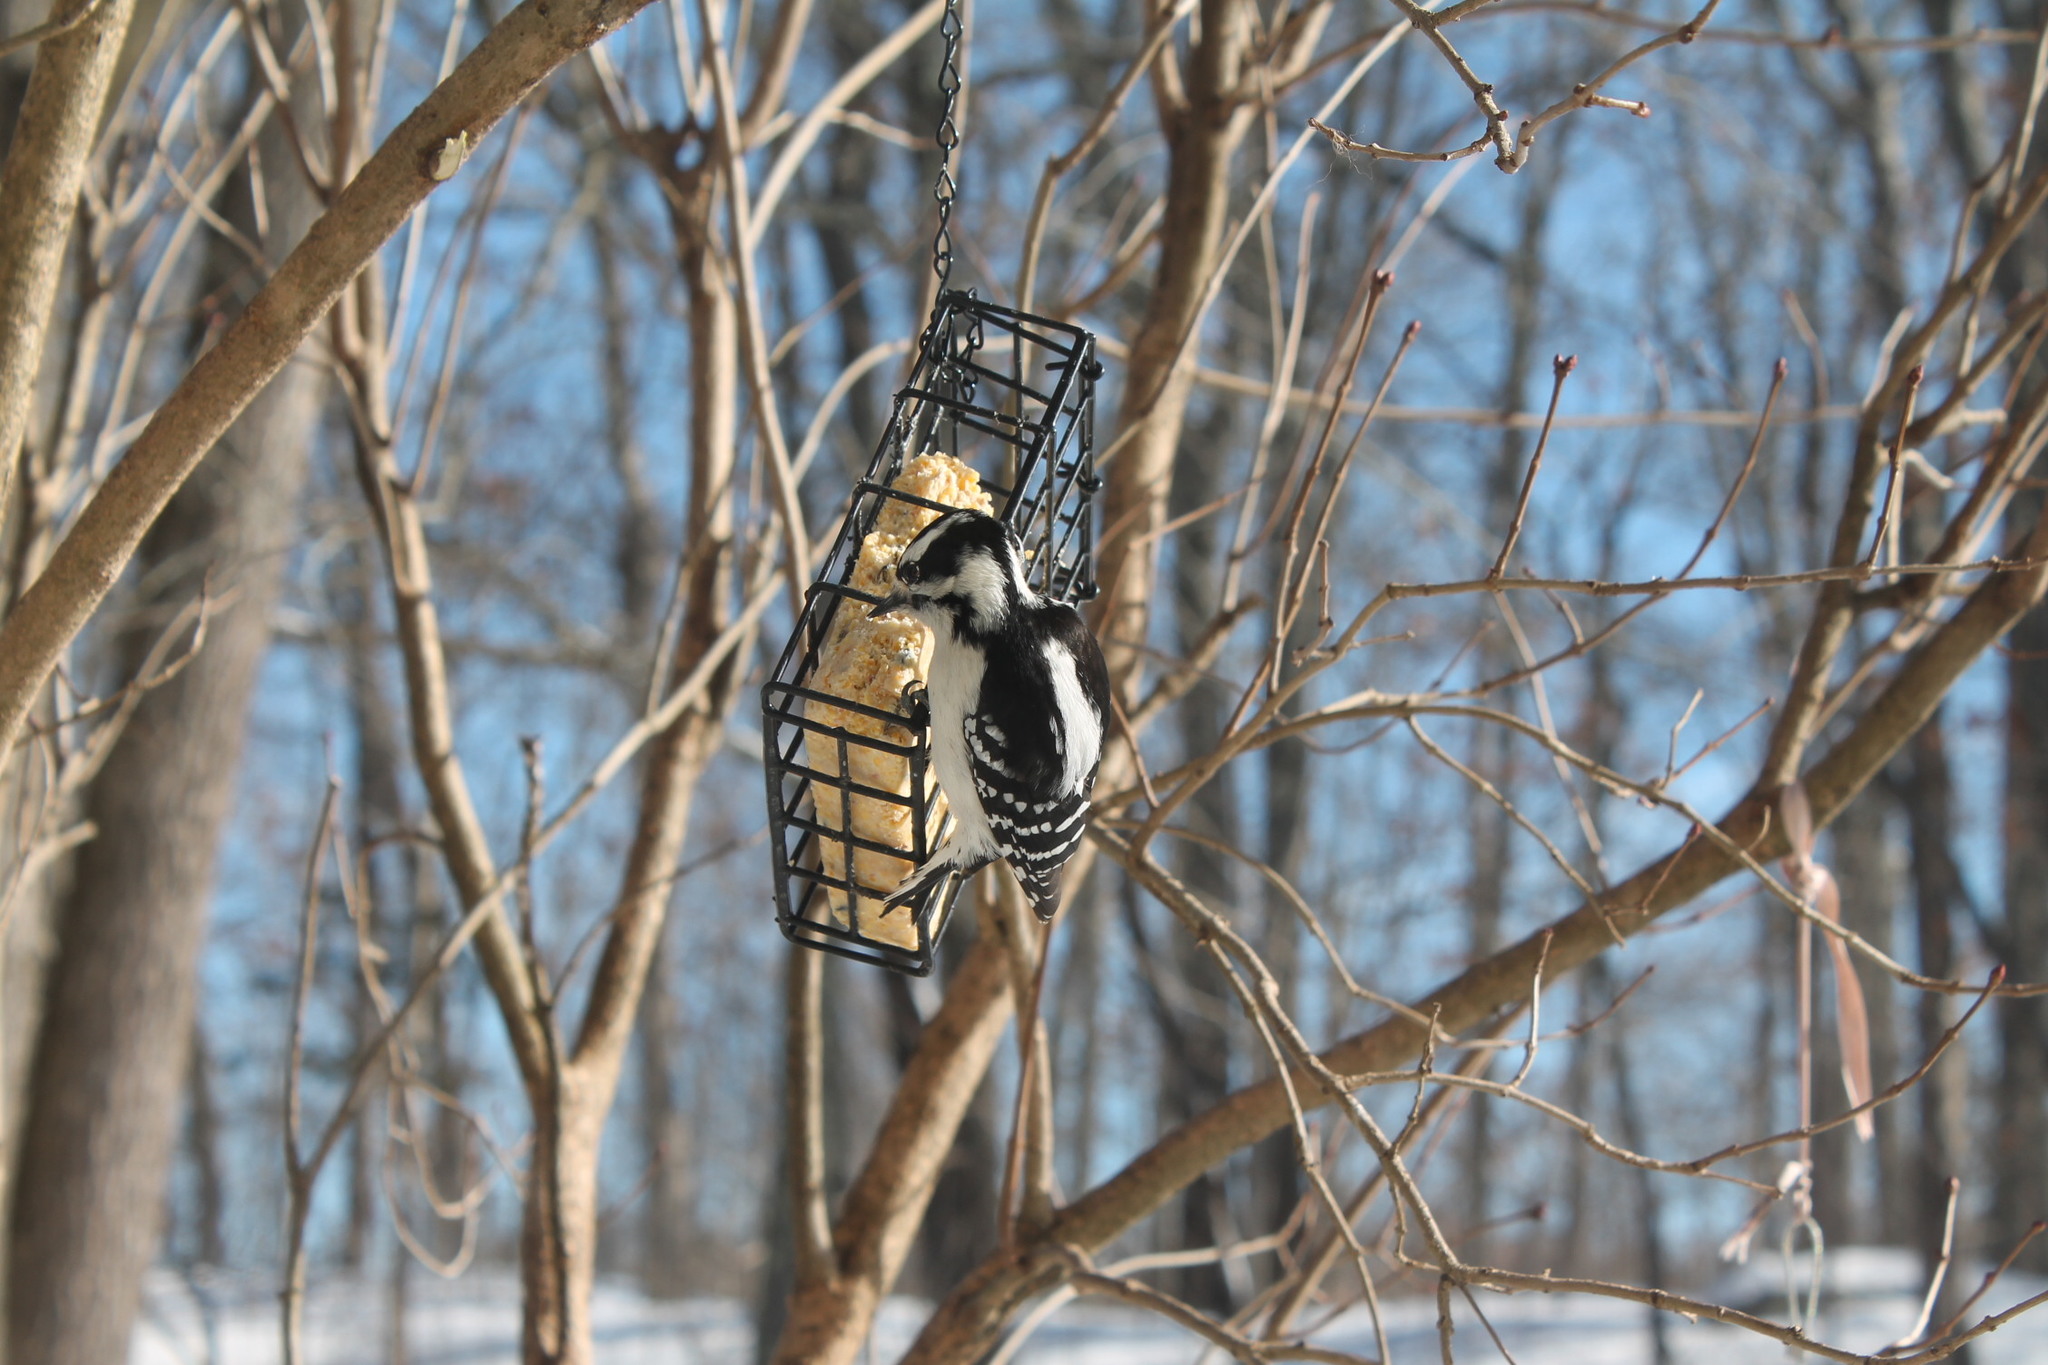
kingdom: Animalia
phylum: Chordata
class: Aves
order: Piciformes
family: Picidae
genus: Dryobates
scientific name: Dryobates pubescens
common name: Downy woodpecker
